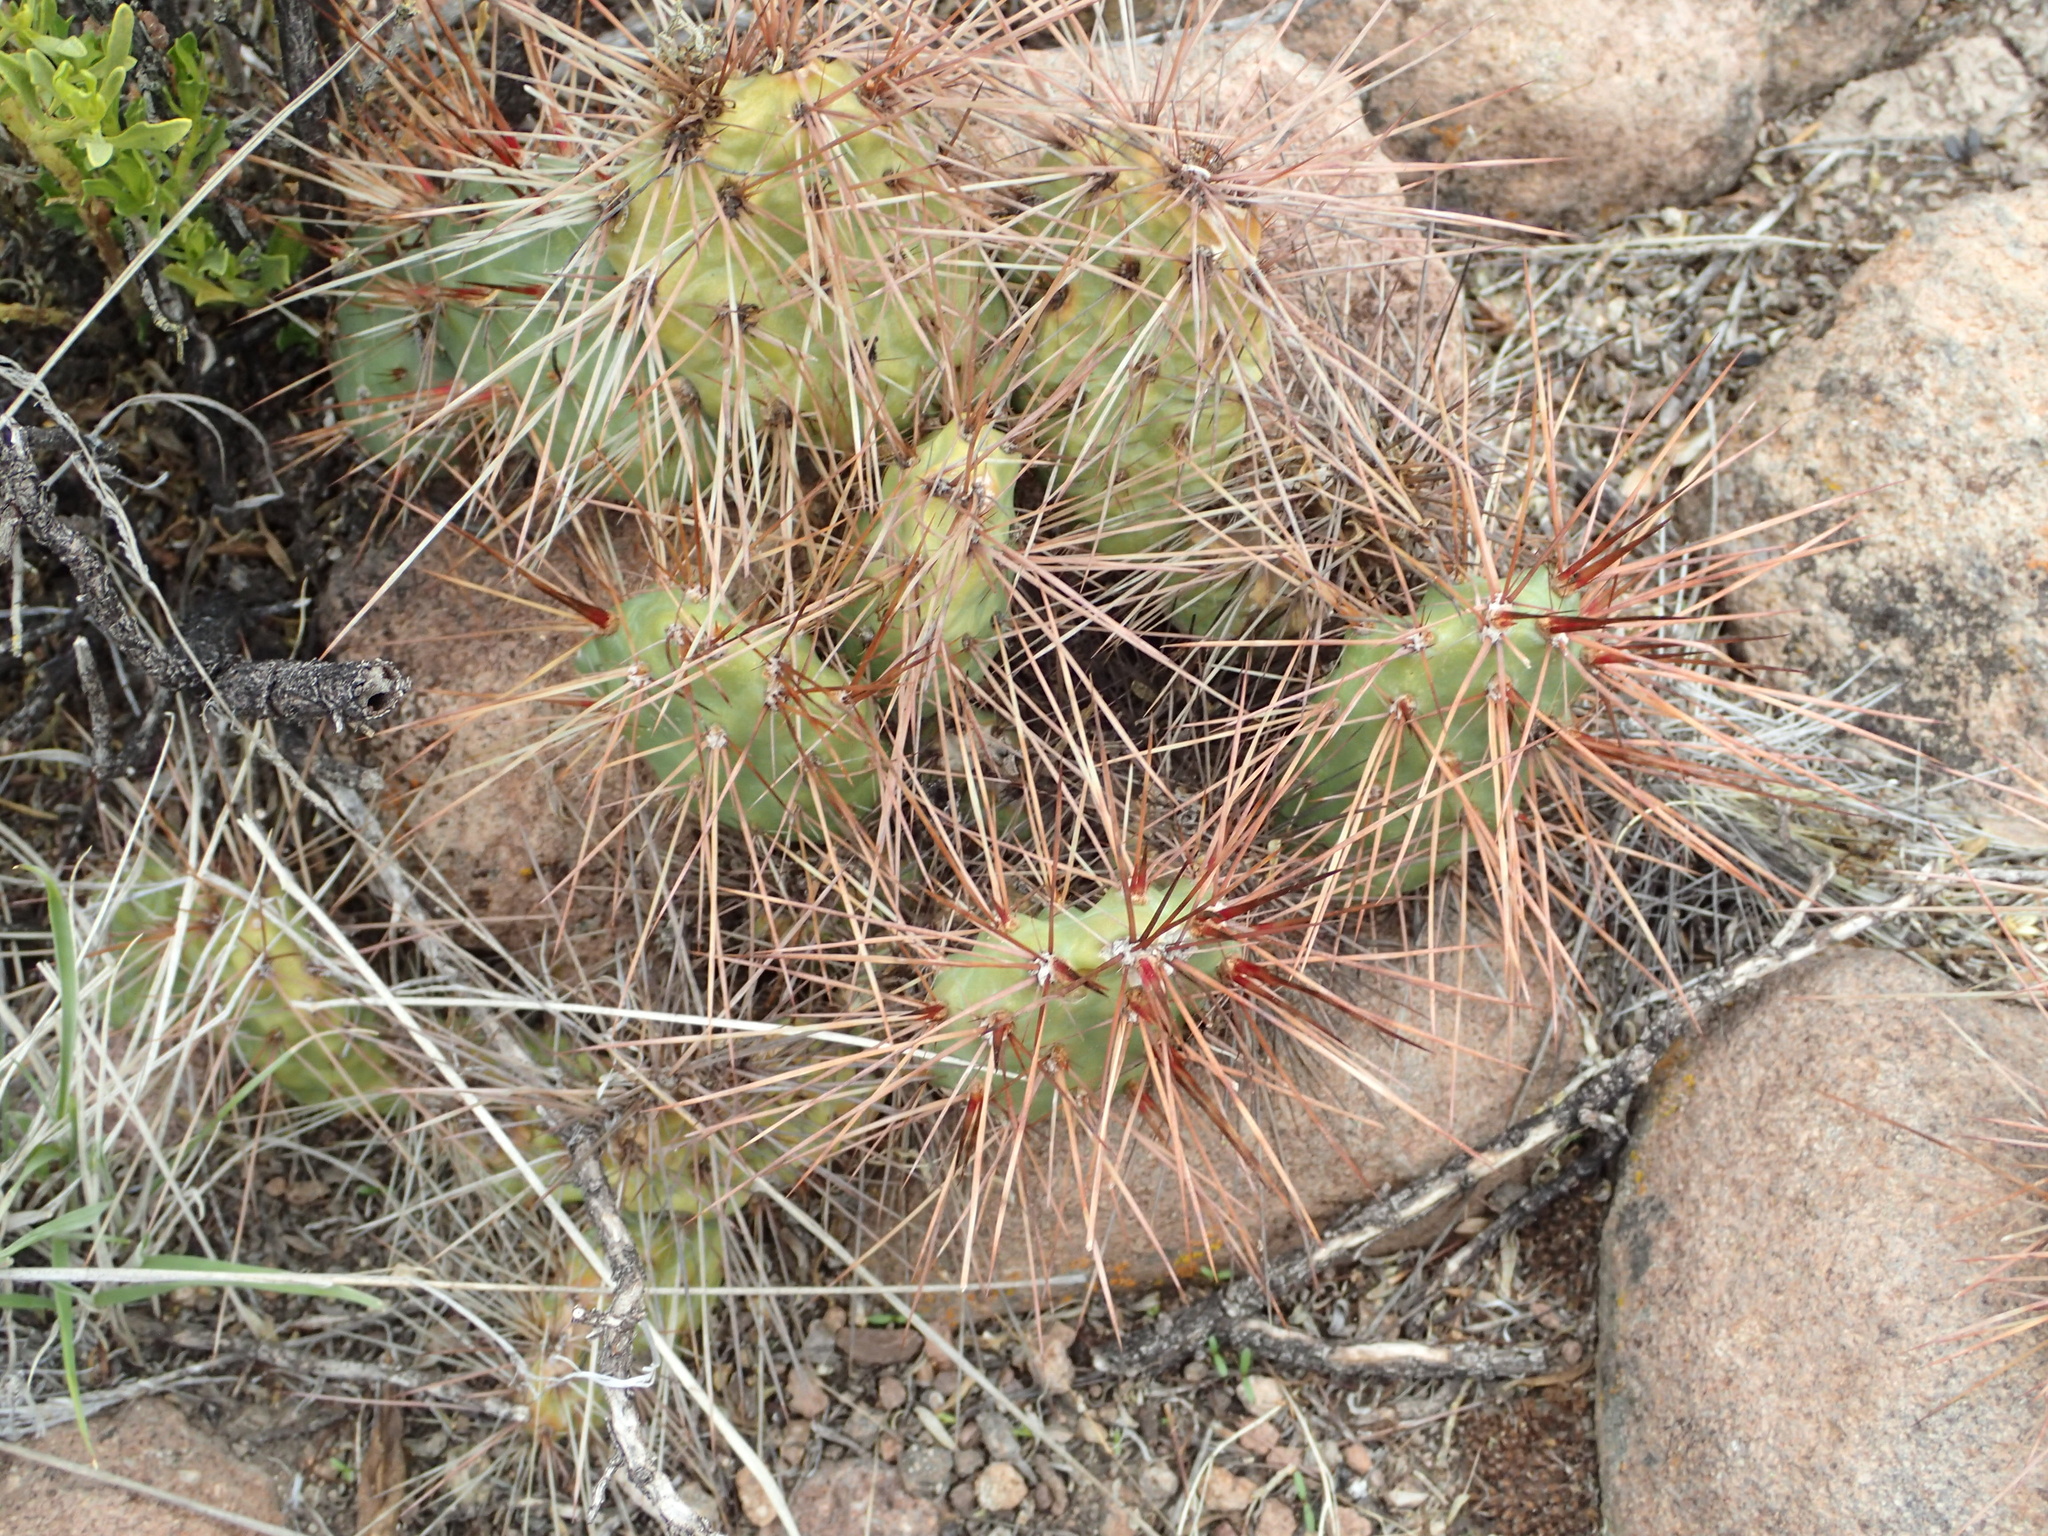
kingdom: Plantae
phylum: Tracheophyta
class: Magnoliopsida
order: Caryophyllales
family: Cactaceae
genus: Airampoa
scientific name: Airampoa soehrensii
